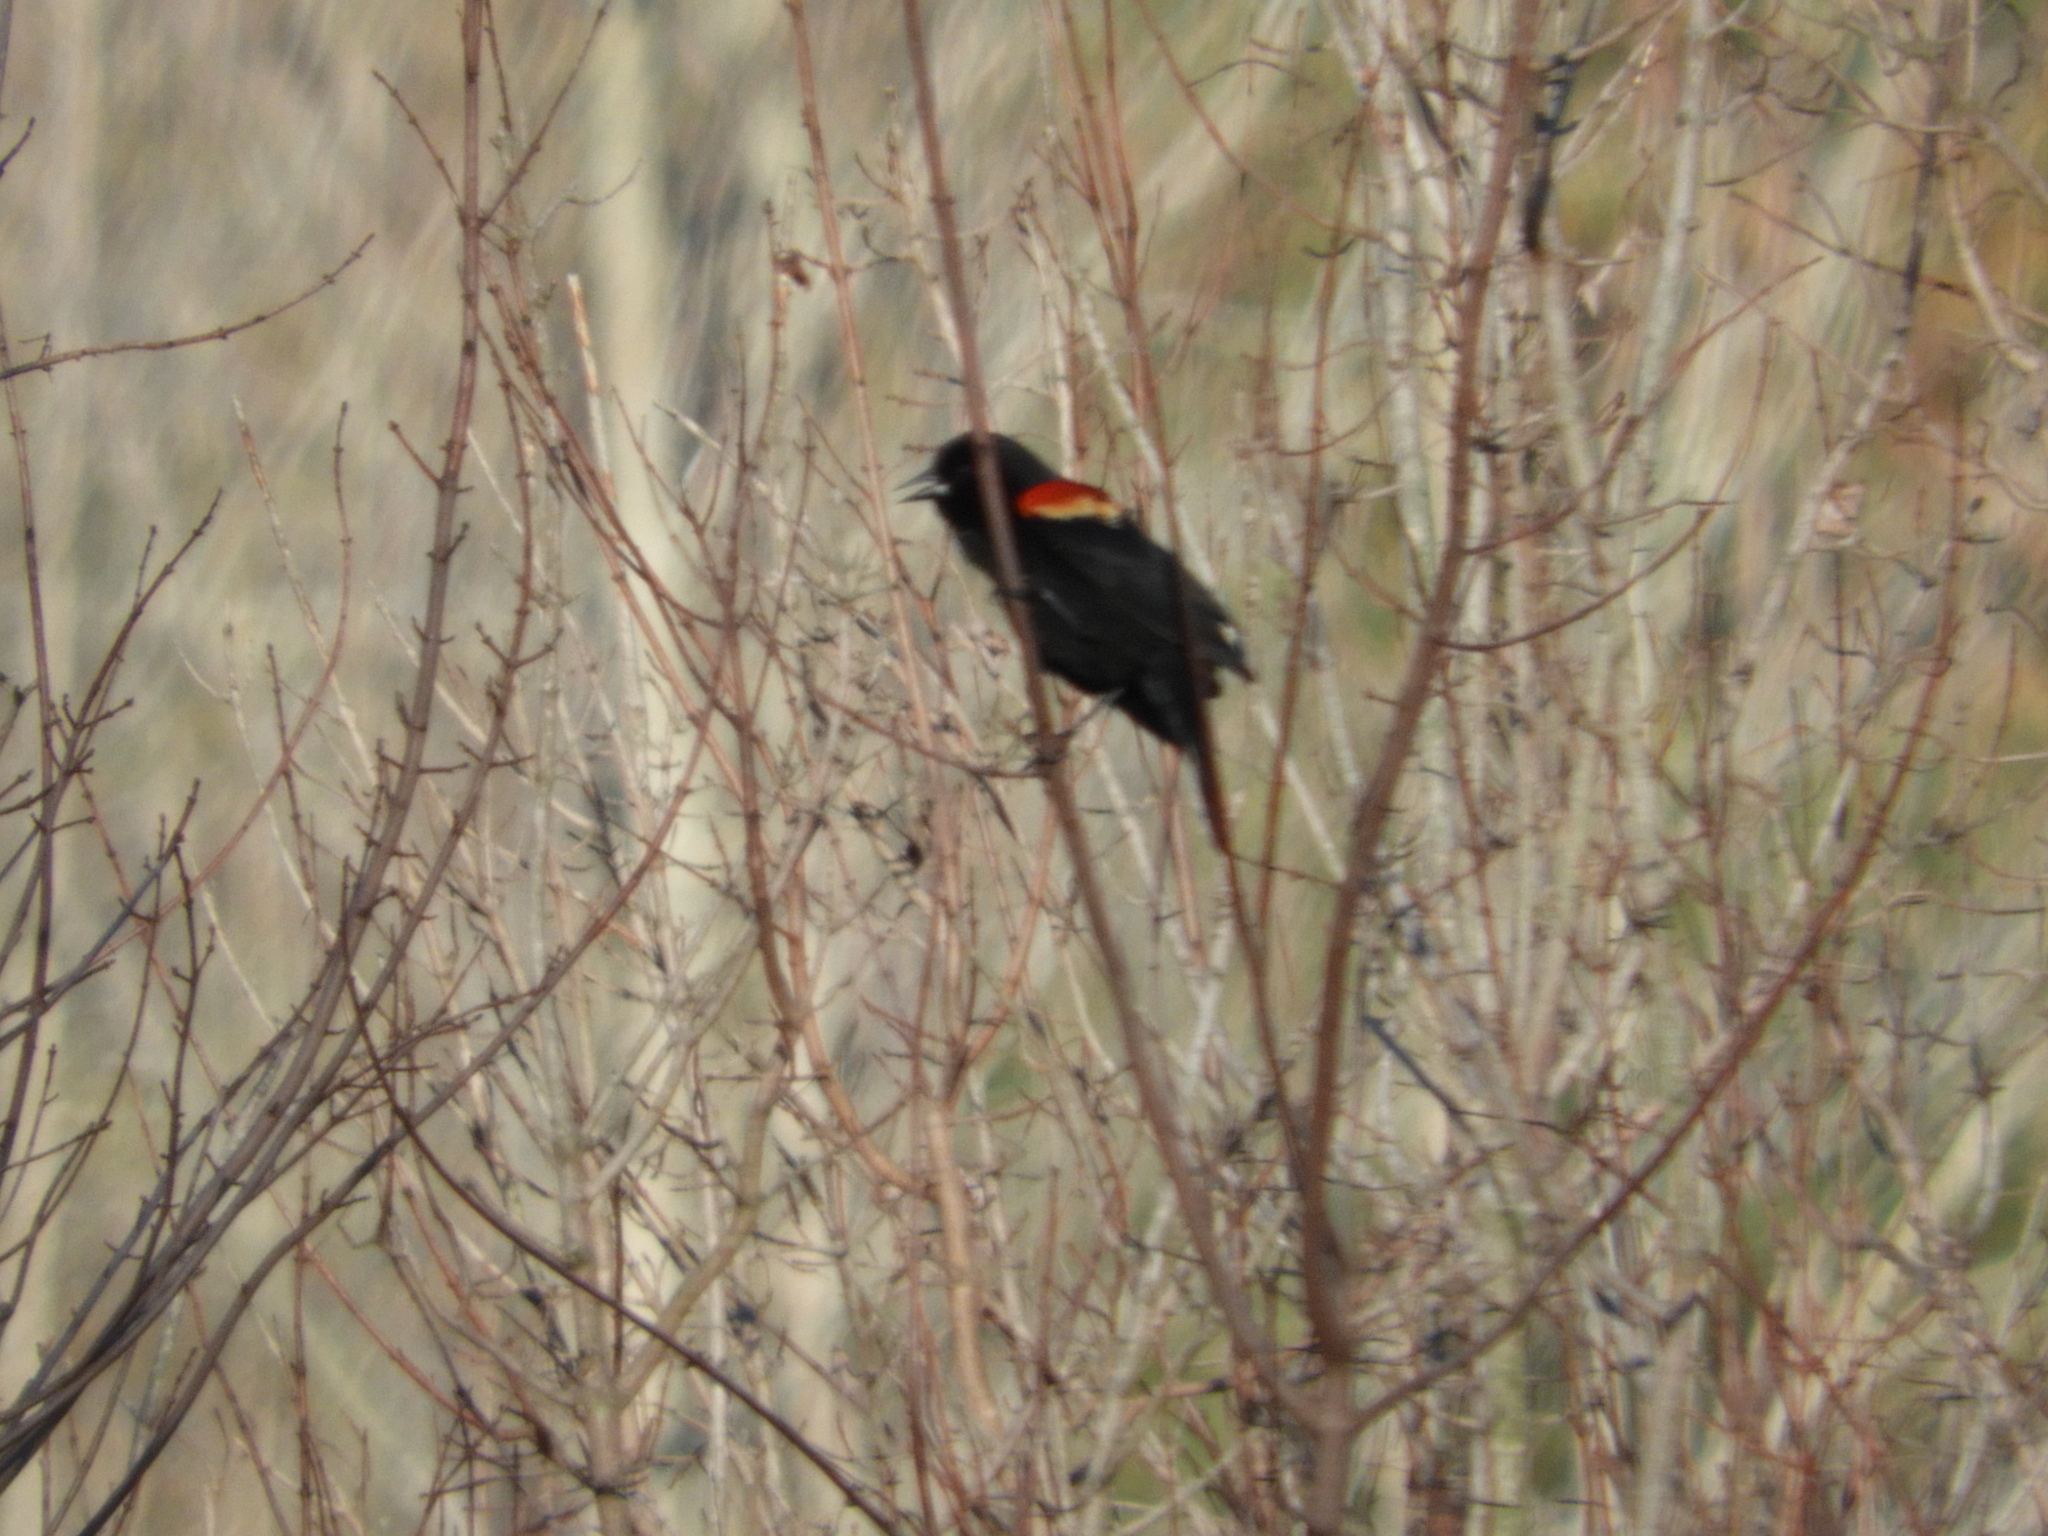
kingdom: Animalia
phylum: Chordata
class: Aves
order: Passeriformes
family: Icteridae
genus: Agelaius
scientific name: Agelaius phoeniceus
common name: Red-winged blackbird
